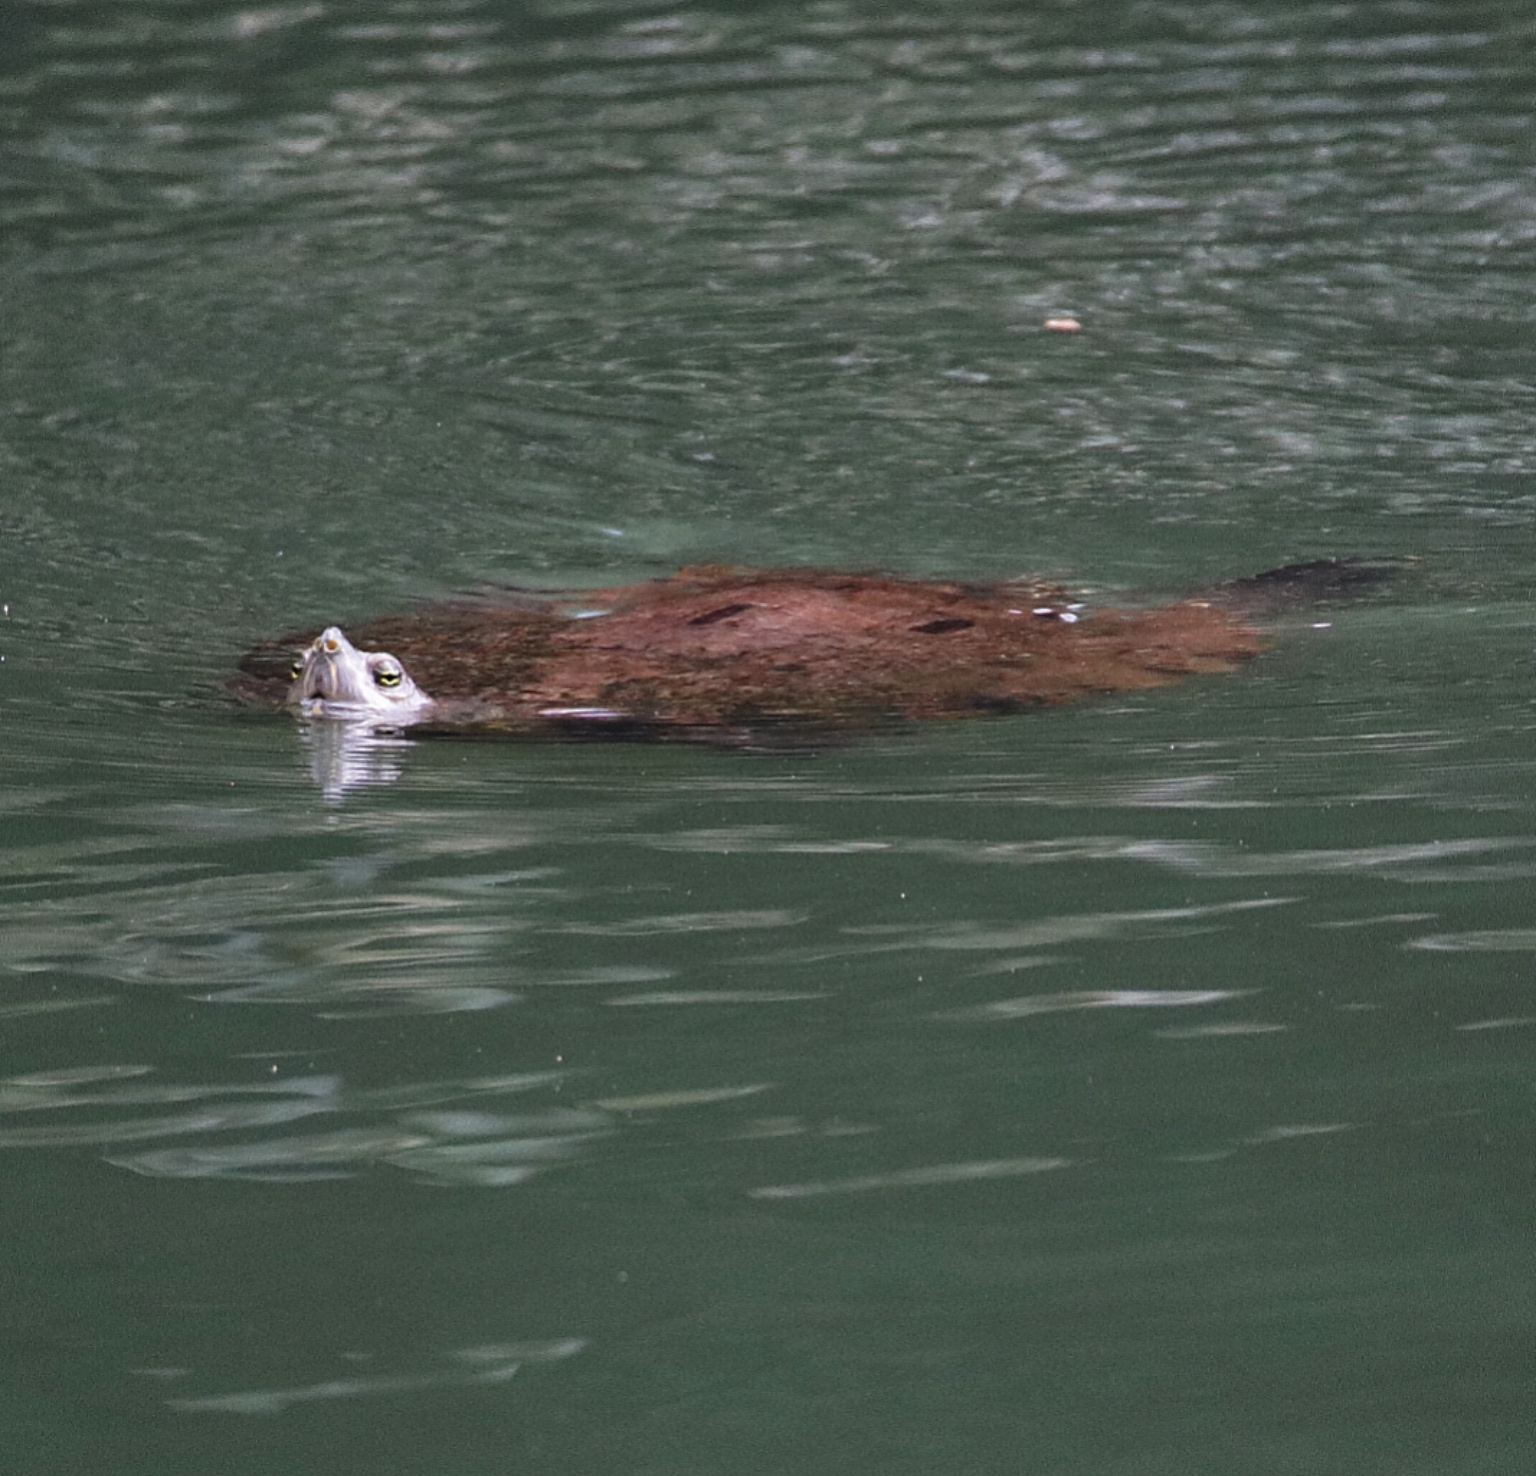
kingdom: Animalia
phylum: Chordata
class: Testudines
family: Emydidae
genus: Trachemys
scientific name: Trachemys venusta
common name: Mesoamerican slider
